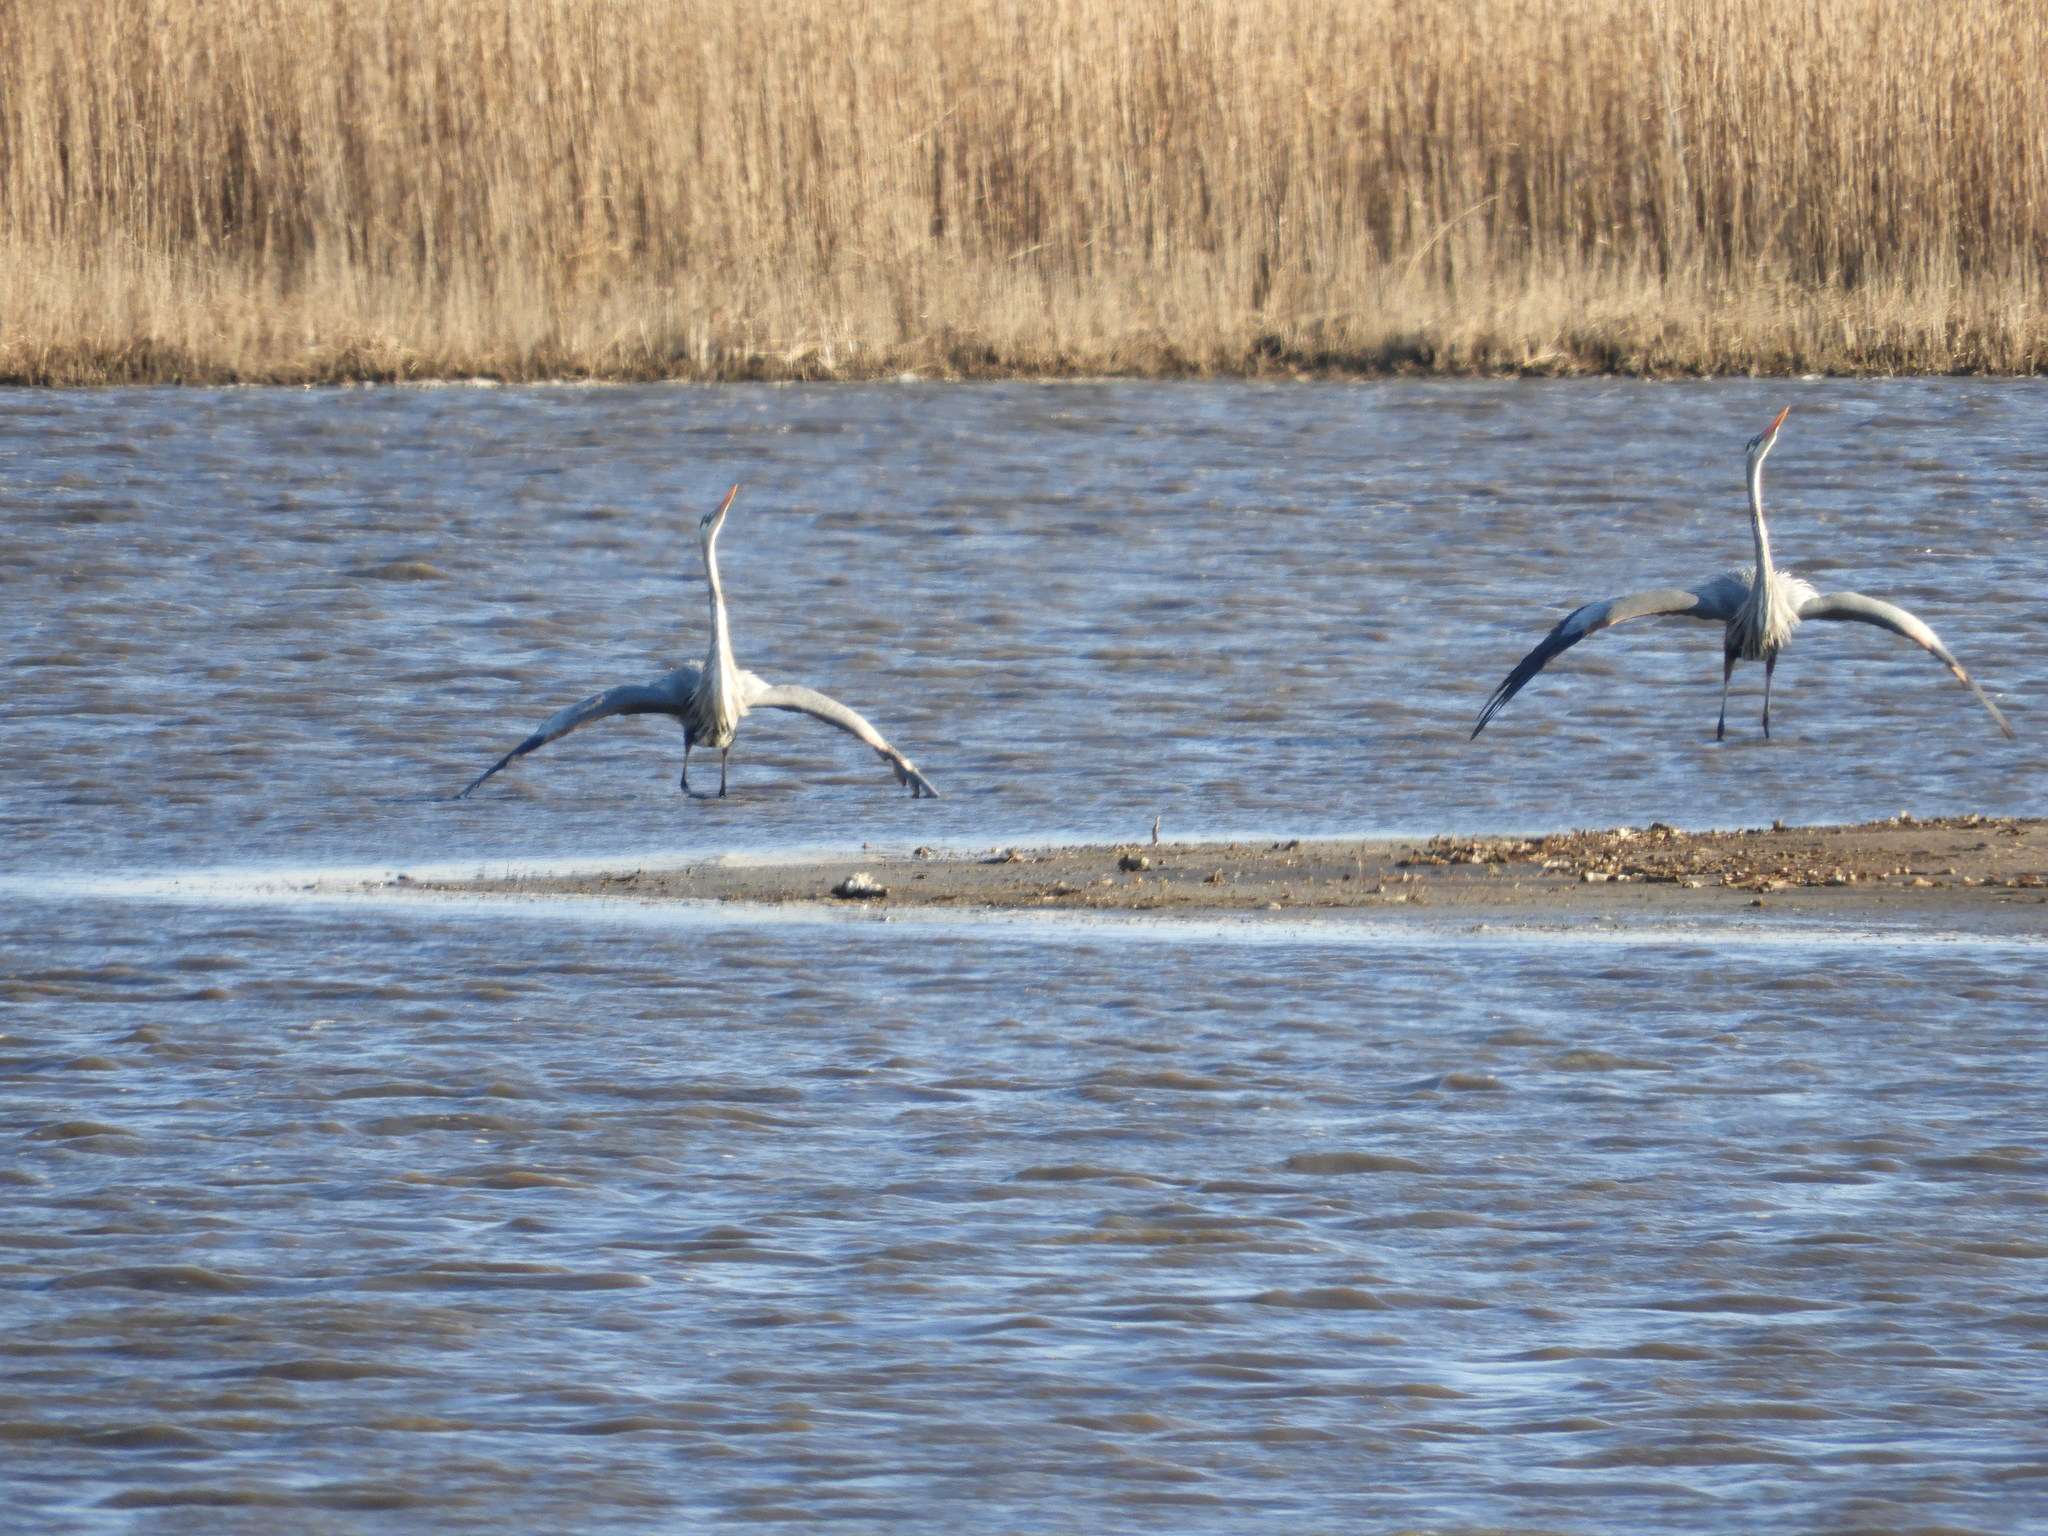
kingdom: Animalia
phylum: Chordata
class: Aves
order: Pelecaniformes
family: Ardeidae
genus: Ardea
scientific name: Ardea herodias
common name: Great blue heron
